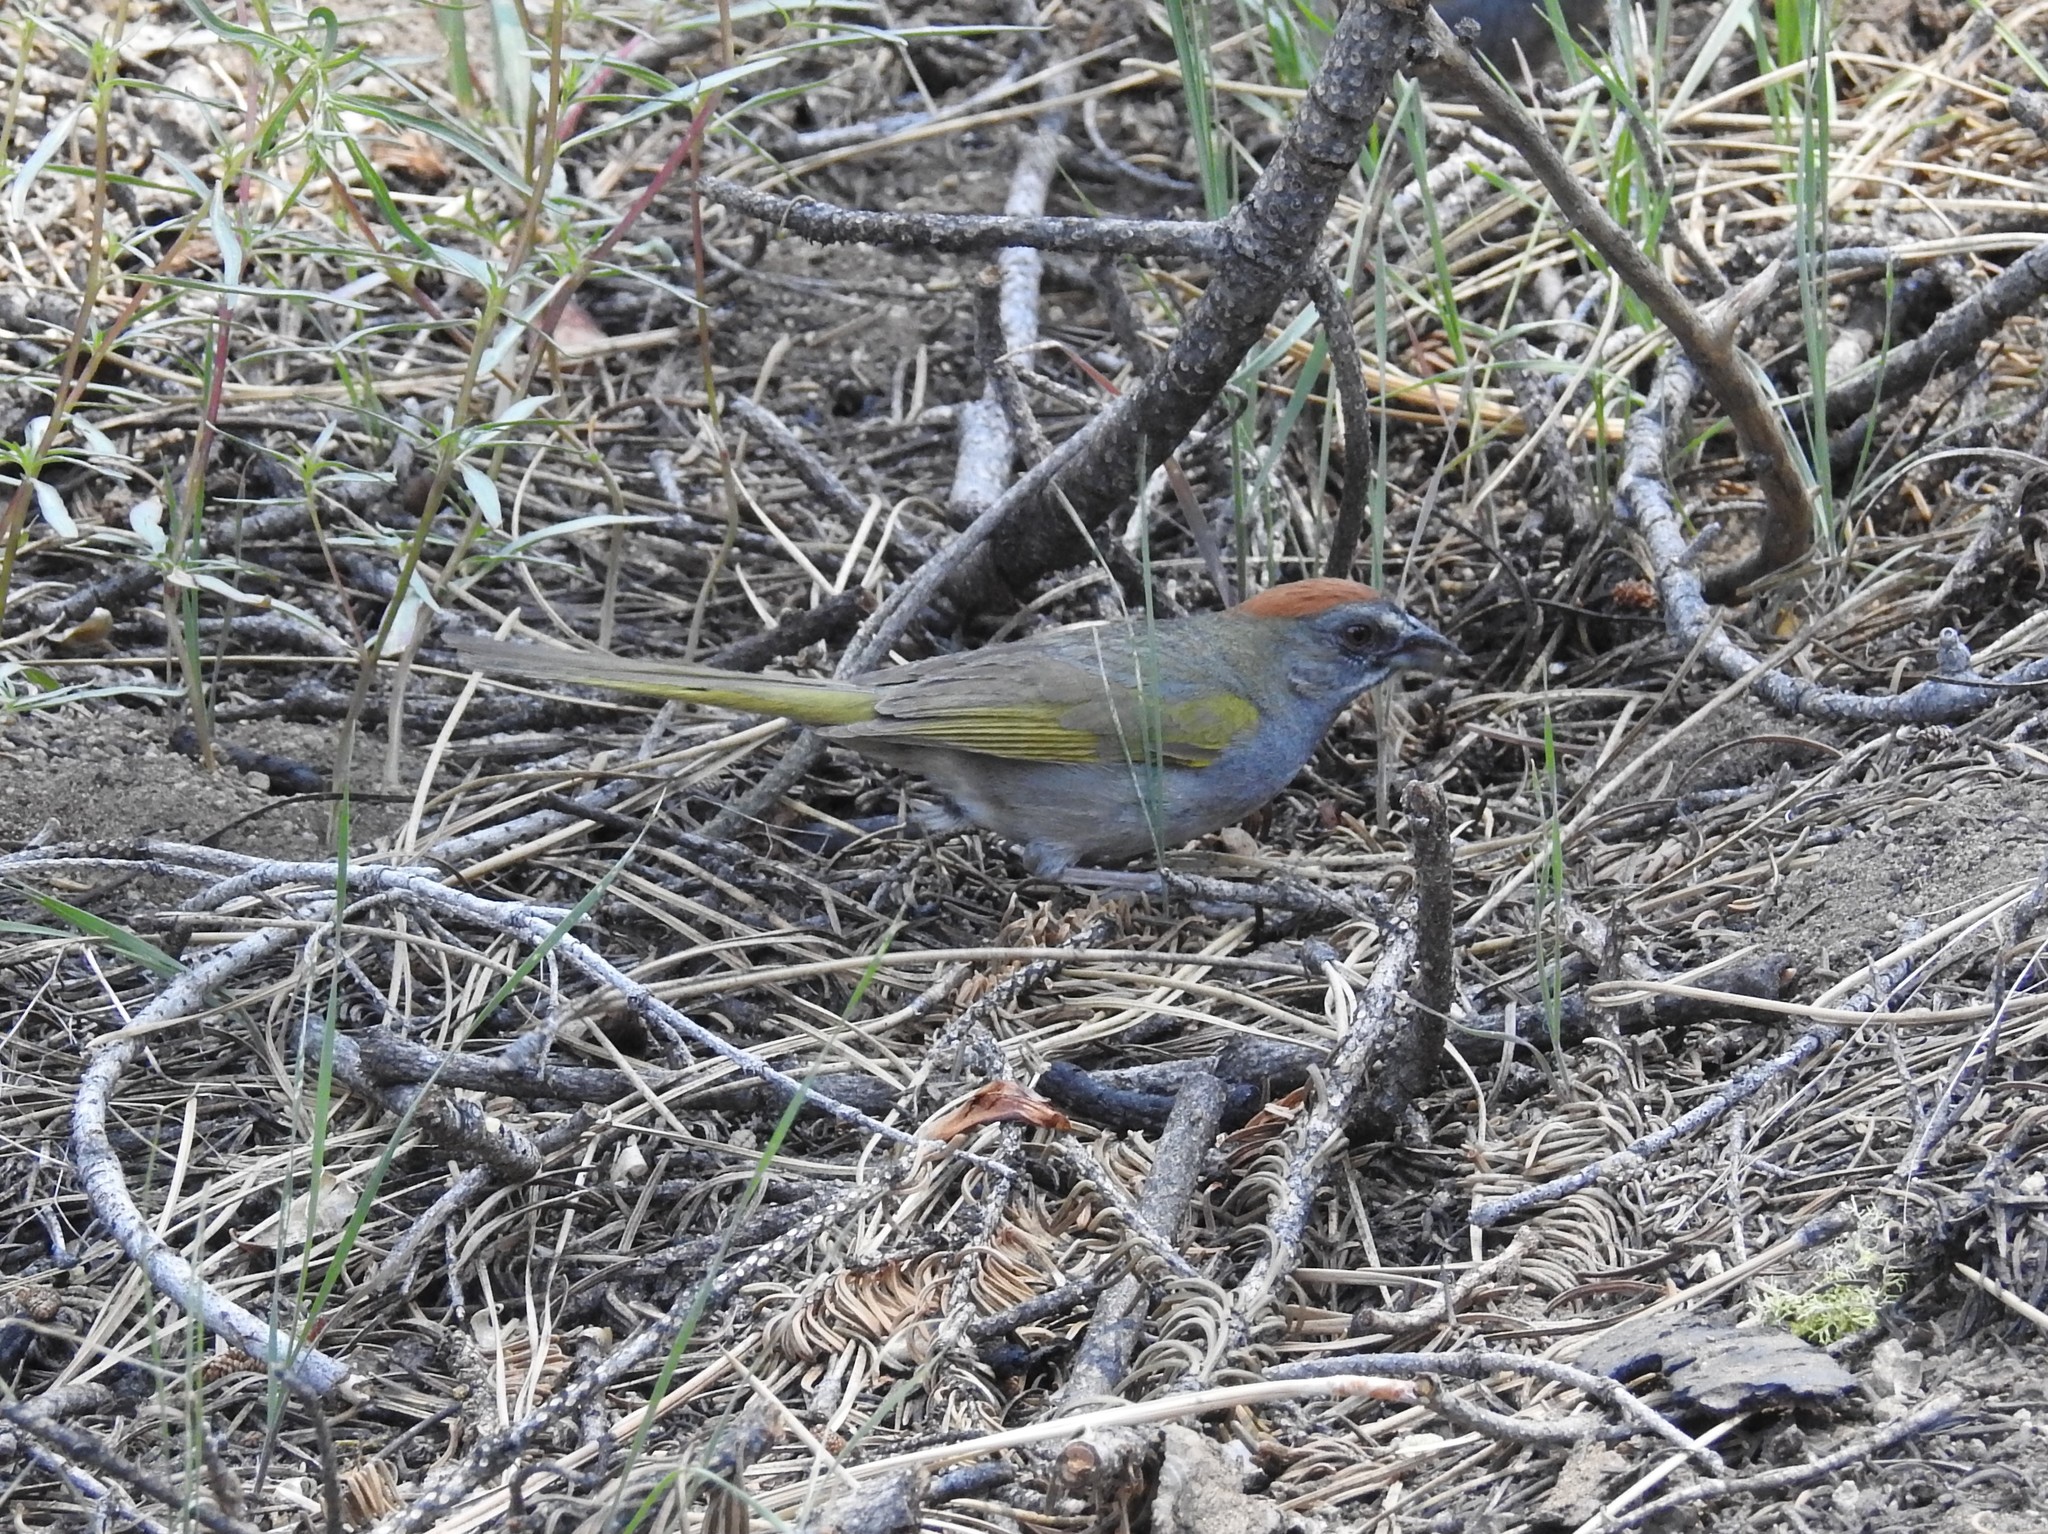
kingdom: Animalia
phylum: Chordata
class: Aves
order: Passeriformes
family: Passerellidae
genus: Pipilo
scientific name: Pipilo chlorurus
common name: Green-tailed towhee
